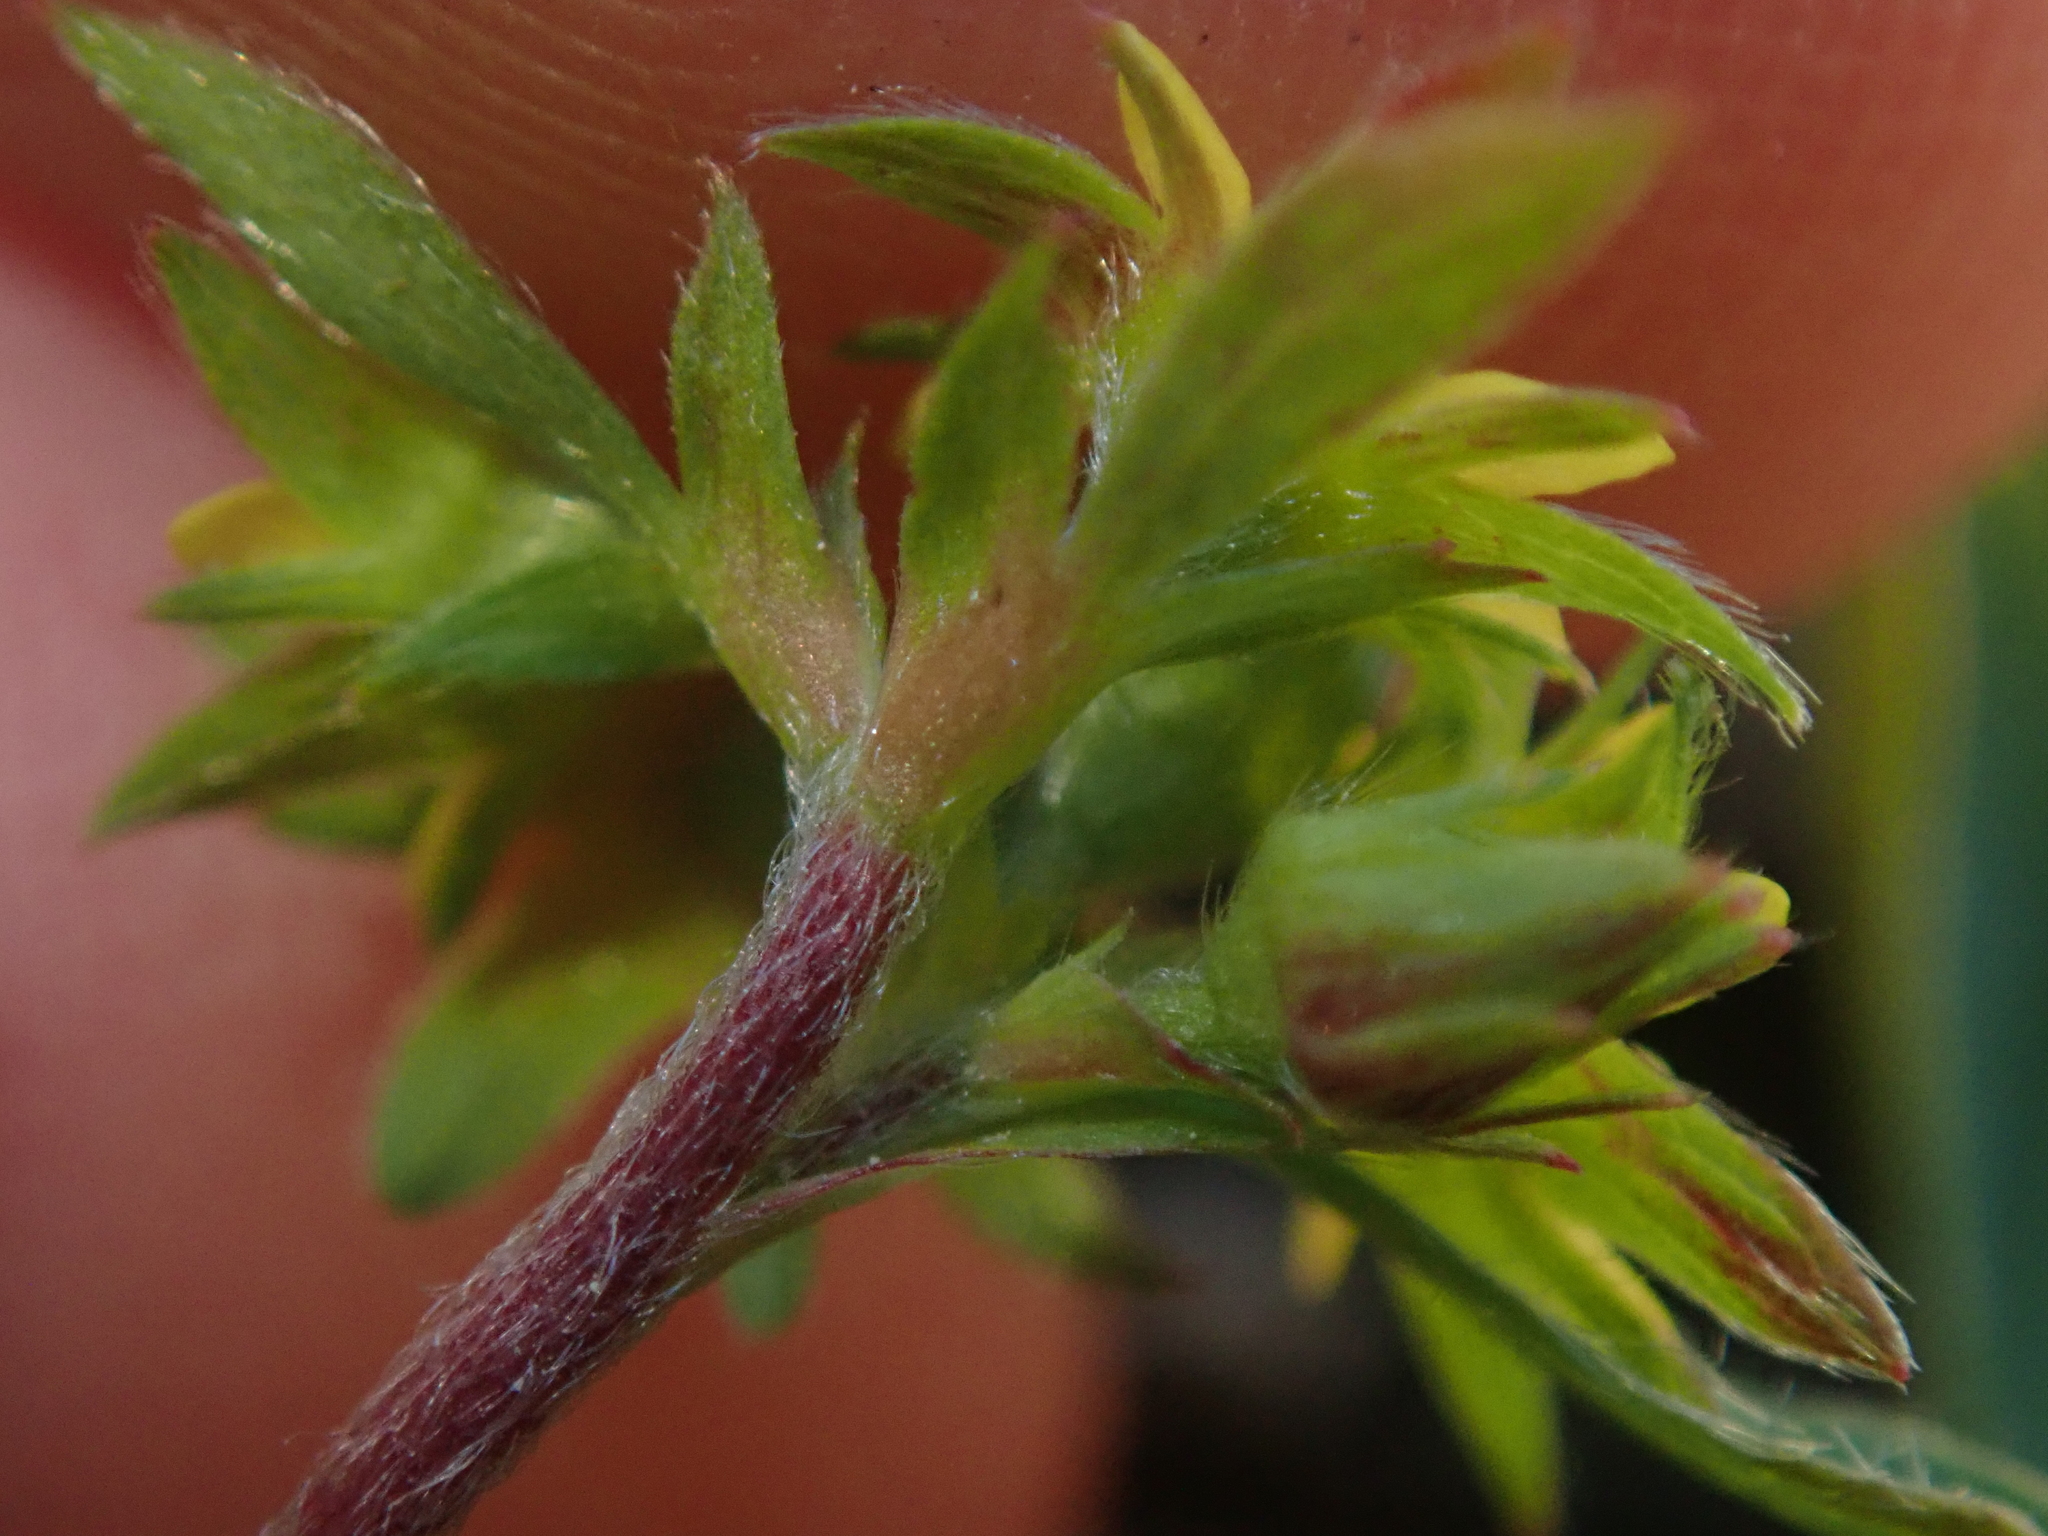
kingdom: Plantae
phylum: Tracheophyta
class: Magnoliopsida
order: Rosales
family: Rosaceae
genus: Sibbaldia
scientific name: Sibbaldia procumbens
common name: Creeping sibbaldia
